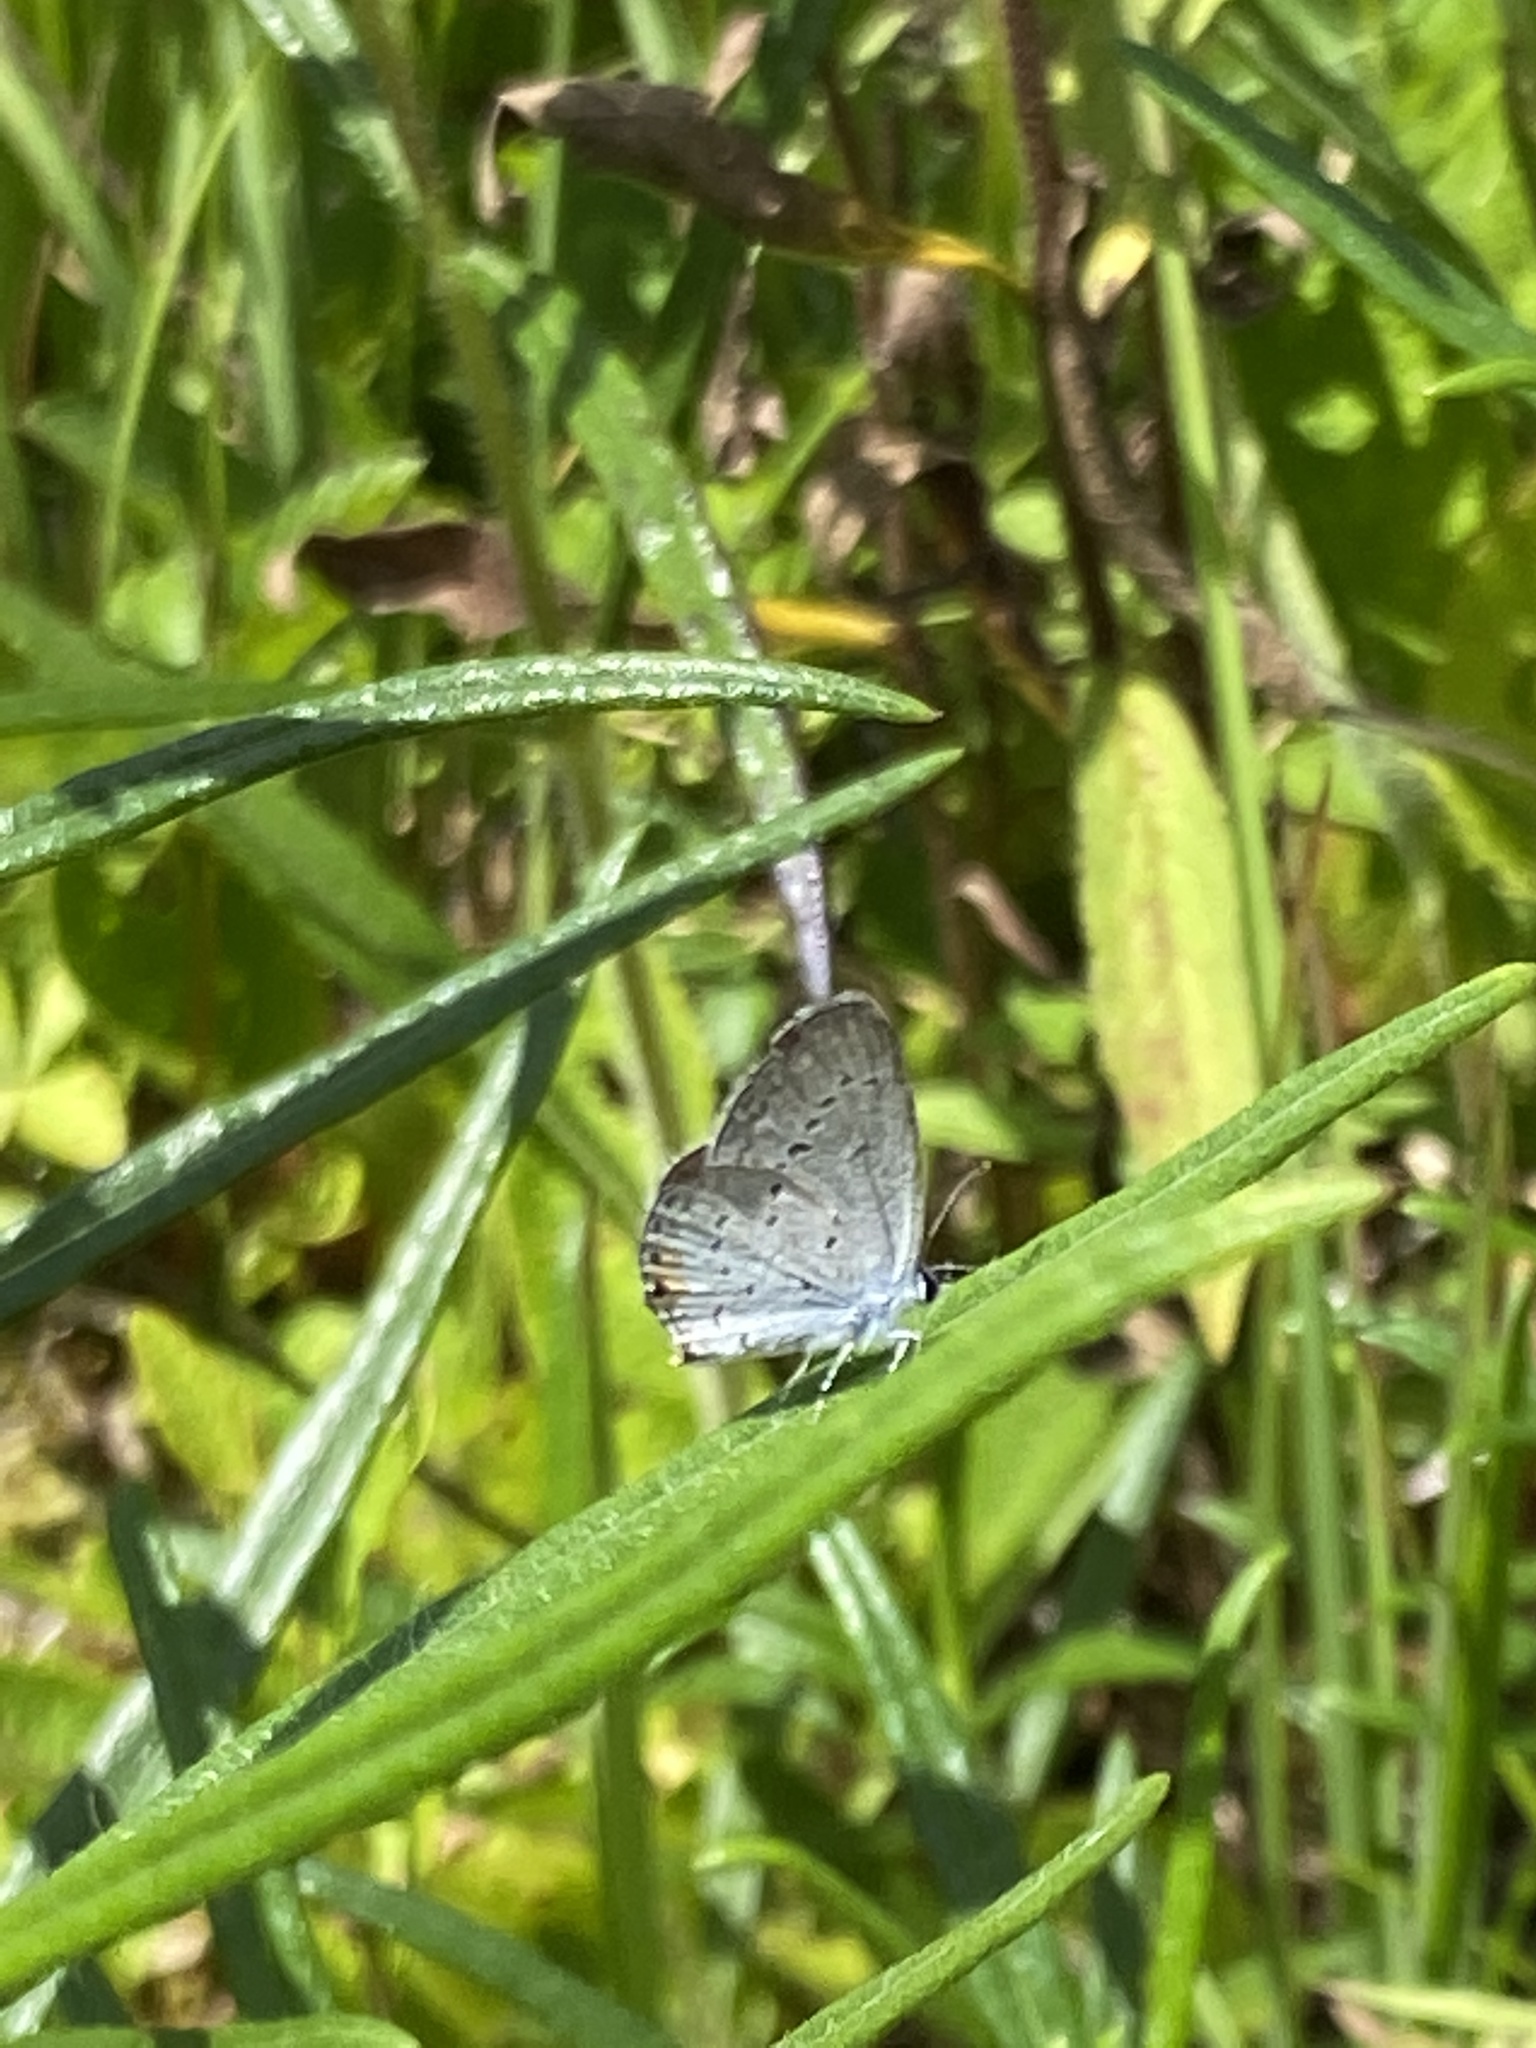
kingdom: Animalia
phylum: Arthropoda
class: Insecta
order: Lepidoptera
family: Lycaenidae
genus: Elkalyce
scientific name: Elkalyce comyntas
